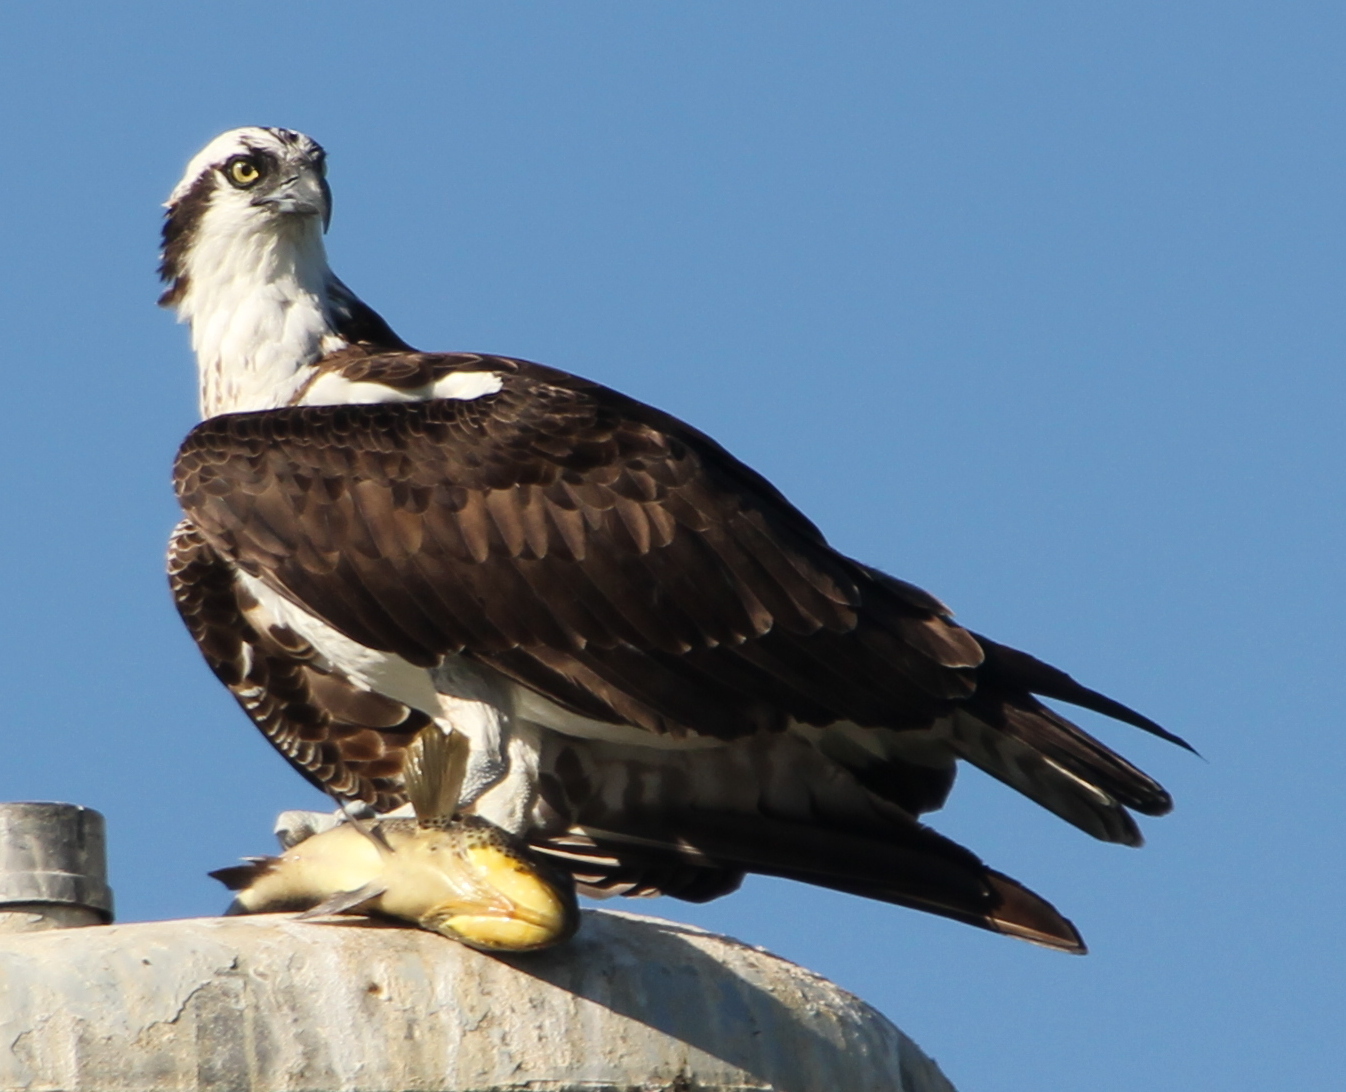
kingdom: Animalia
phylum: Chordata
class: Aves
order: Accipitriformes
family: Pandionidae
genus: Pandion
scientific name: Pandion haliaetus
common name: Osprey
